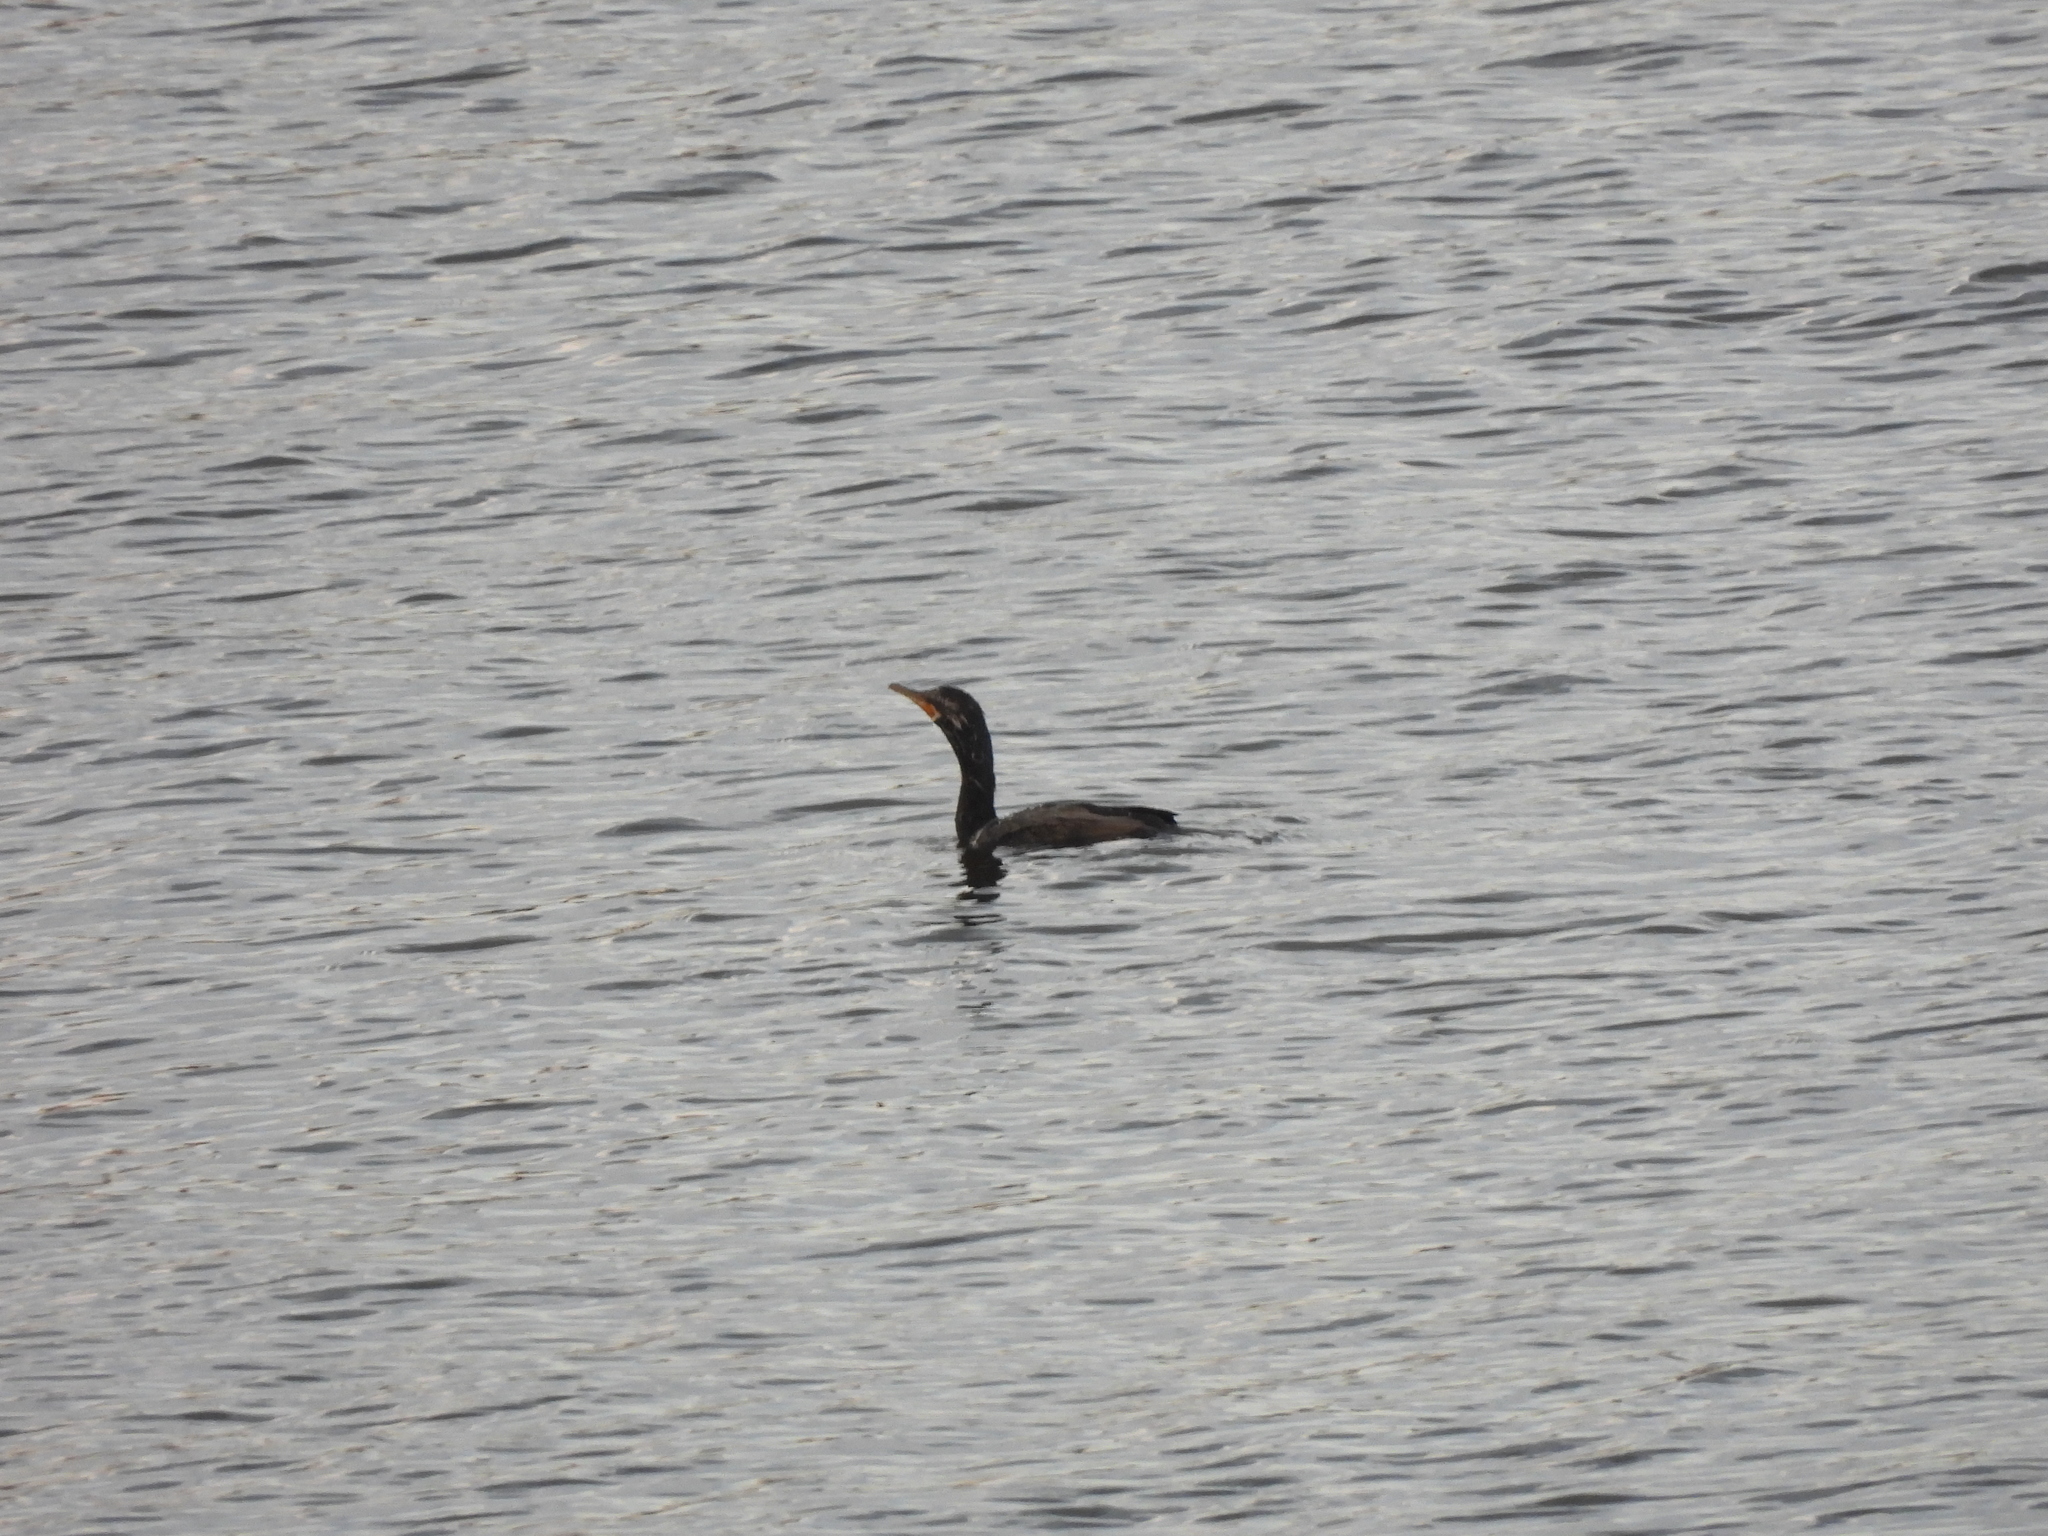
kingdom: Animalia
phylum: Chordata
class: Aves
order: Suliformes
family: Phalacrocoracidae
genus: Phalacrocorax
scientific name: Phalacrocorax brasilianus
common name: Neotropic cormorant
